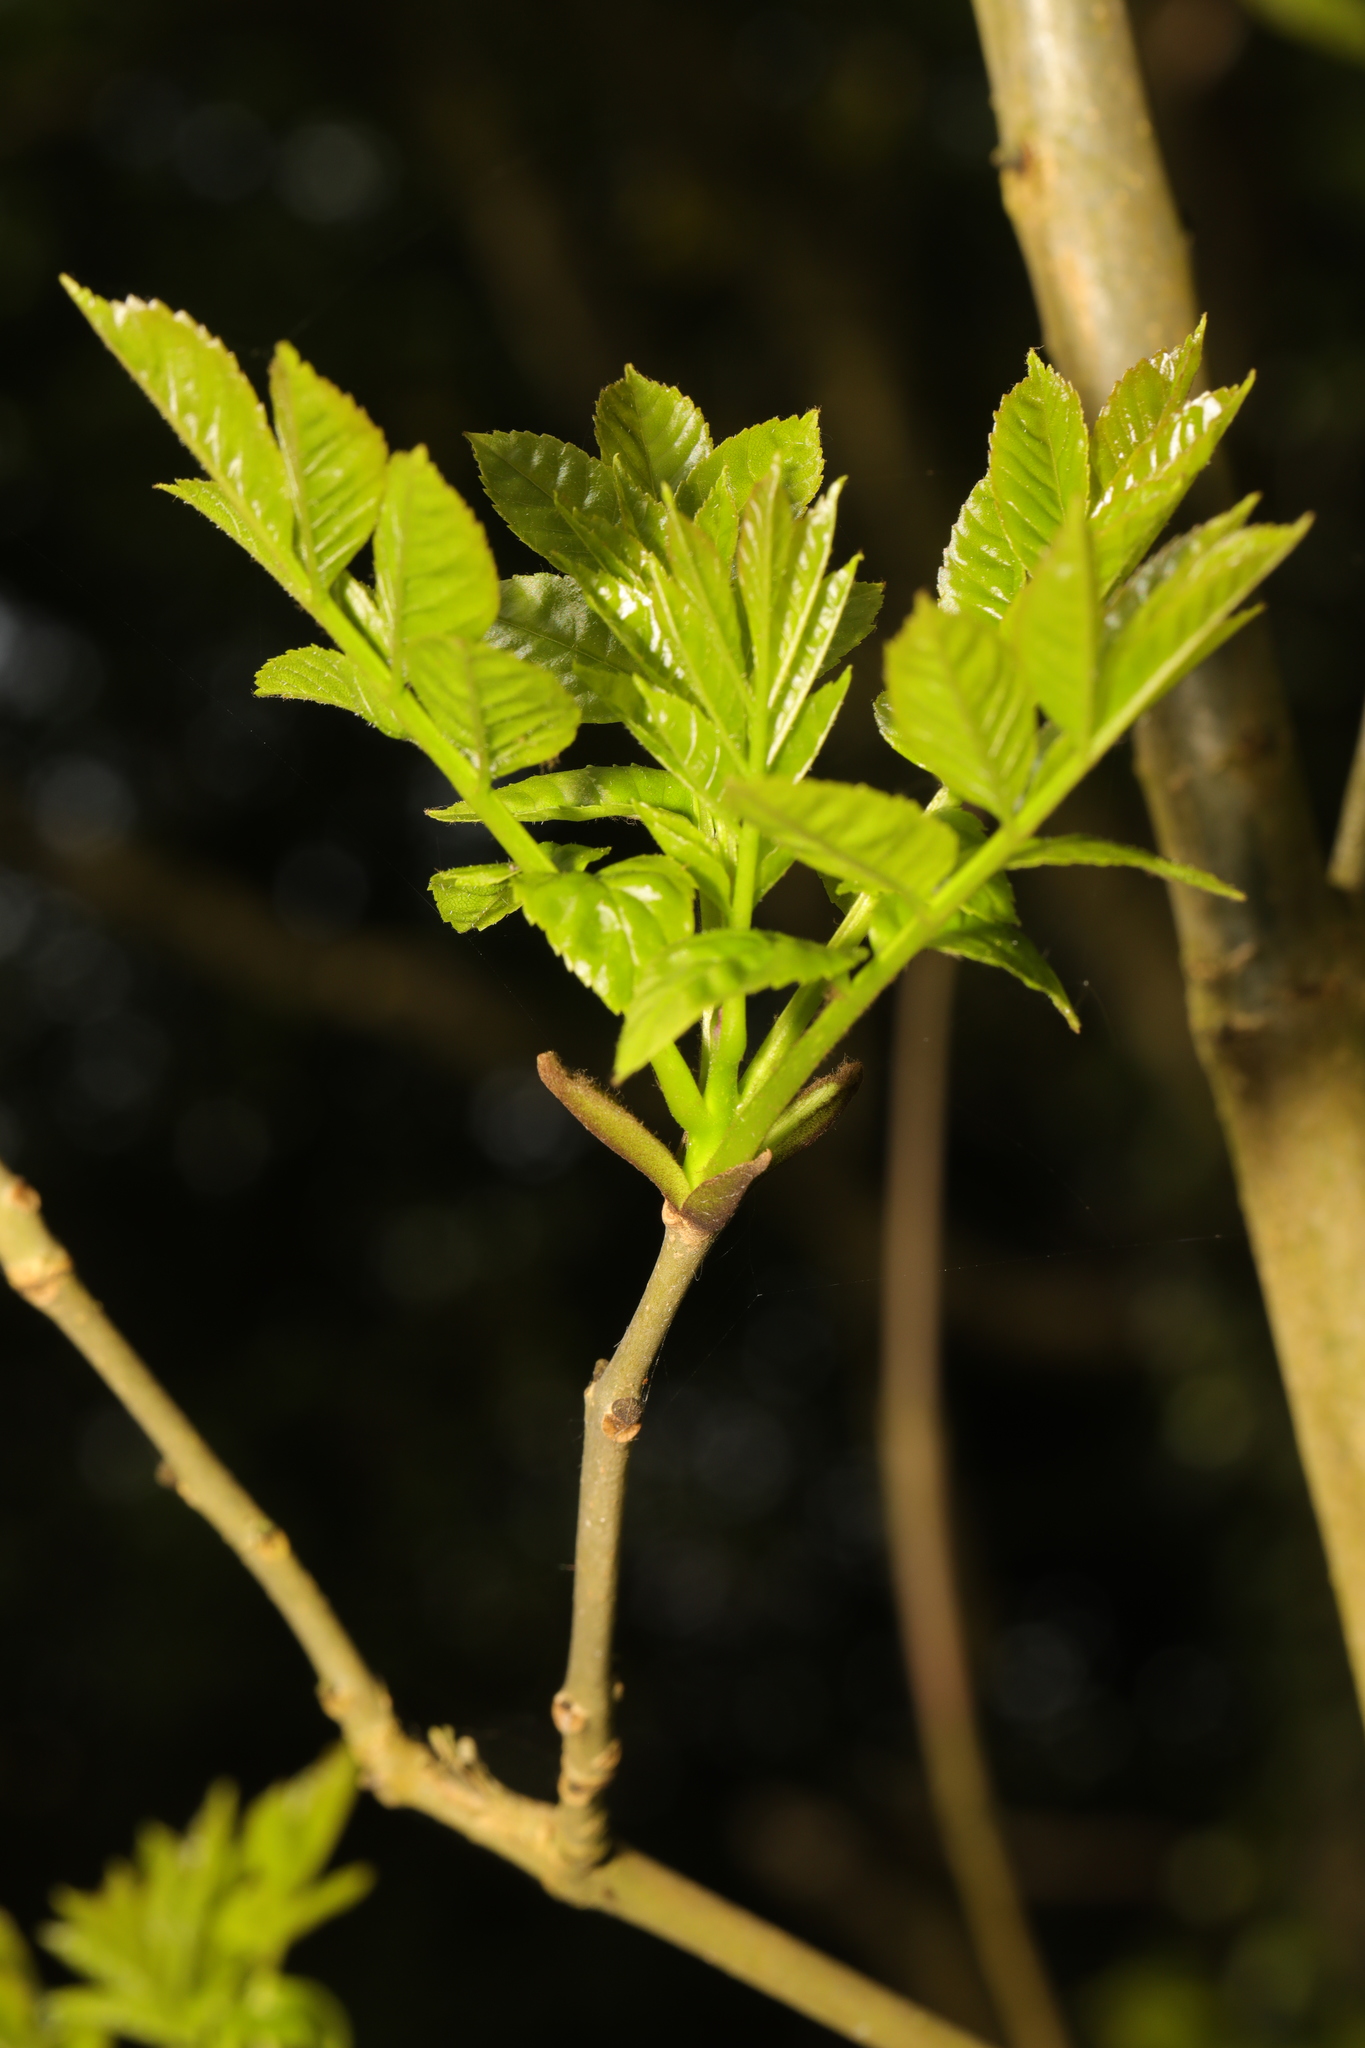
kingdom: Plantae
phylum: Tracheophyta
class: Magnoliopsida
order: Lamiales
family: Oleaceae
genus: Fraxinus
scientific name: Fraxinus excelsior
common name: European ash
